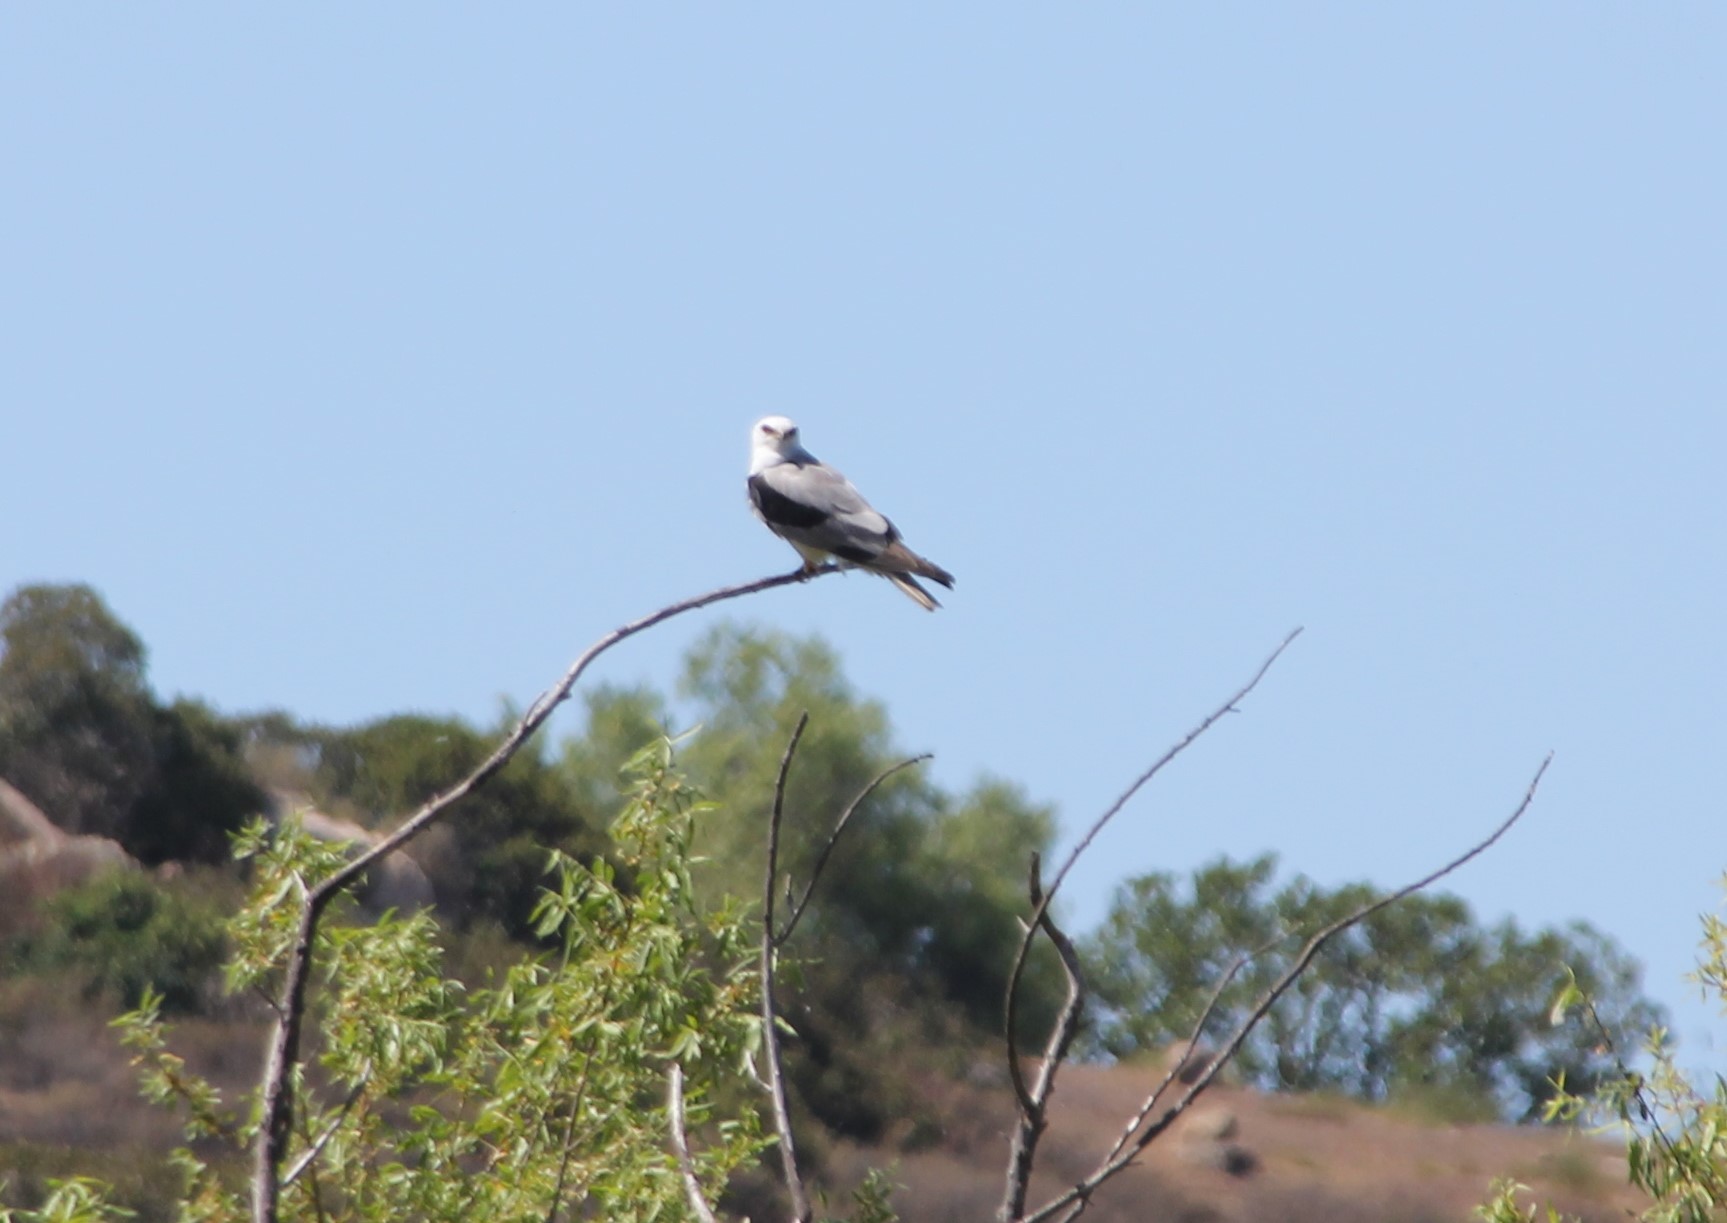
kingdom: Animalia
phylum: Chordata
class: Aves
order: Accipitriformes
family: Accipitridae
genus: Elanus
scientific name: Elanus leucurus
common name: White-tailed kite
